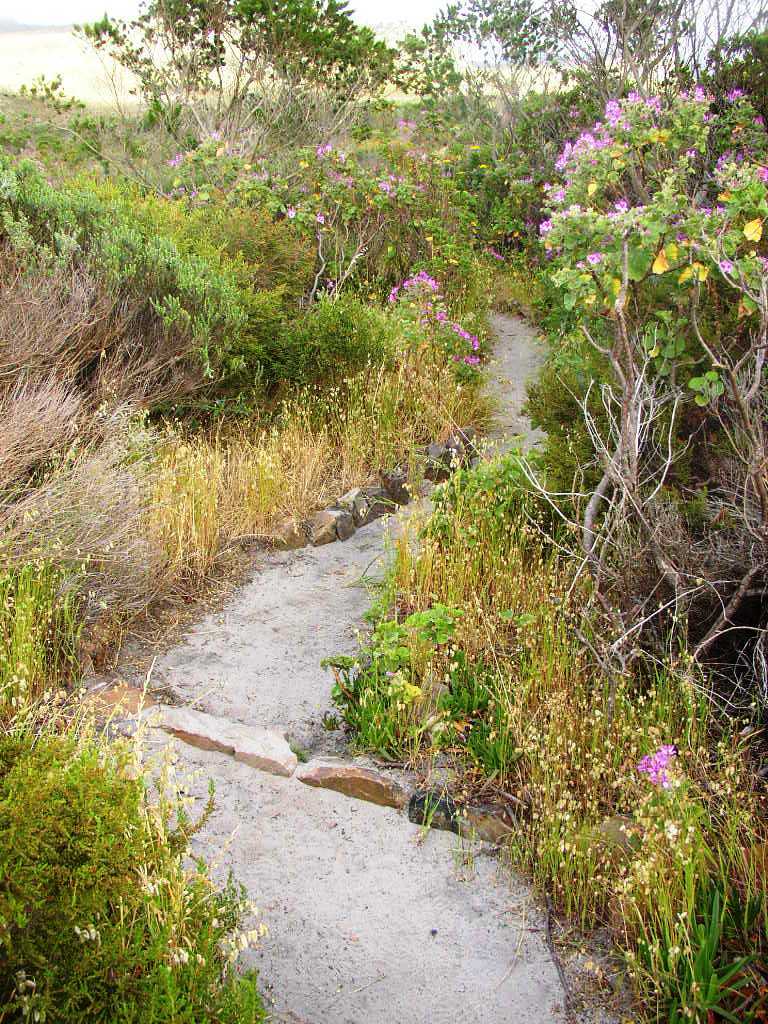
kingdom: Plantae
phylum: Tracheophyta
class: Magnoliopsida
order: Geraniales
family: Geraniaceae
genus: Pelargonium
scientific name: Pelargonium cucullatum
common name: Tree pelargonium
